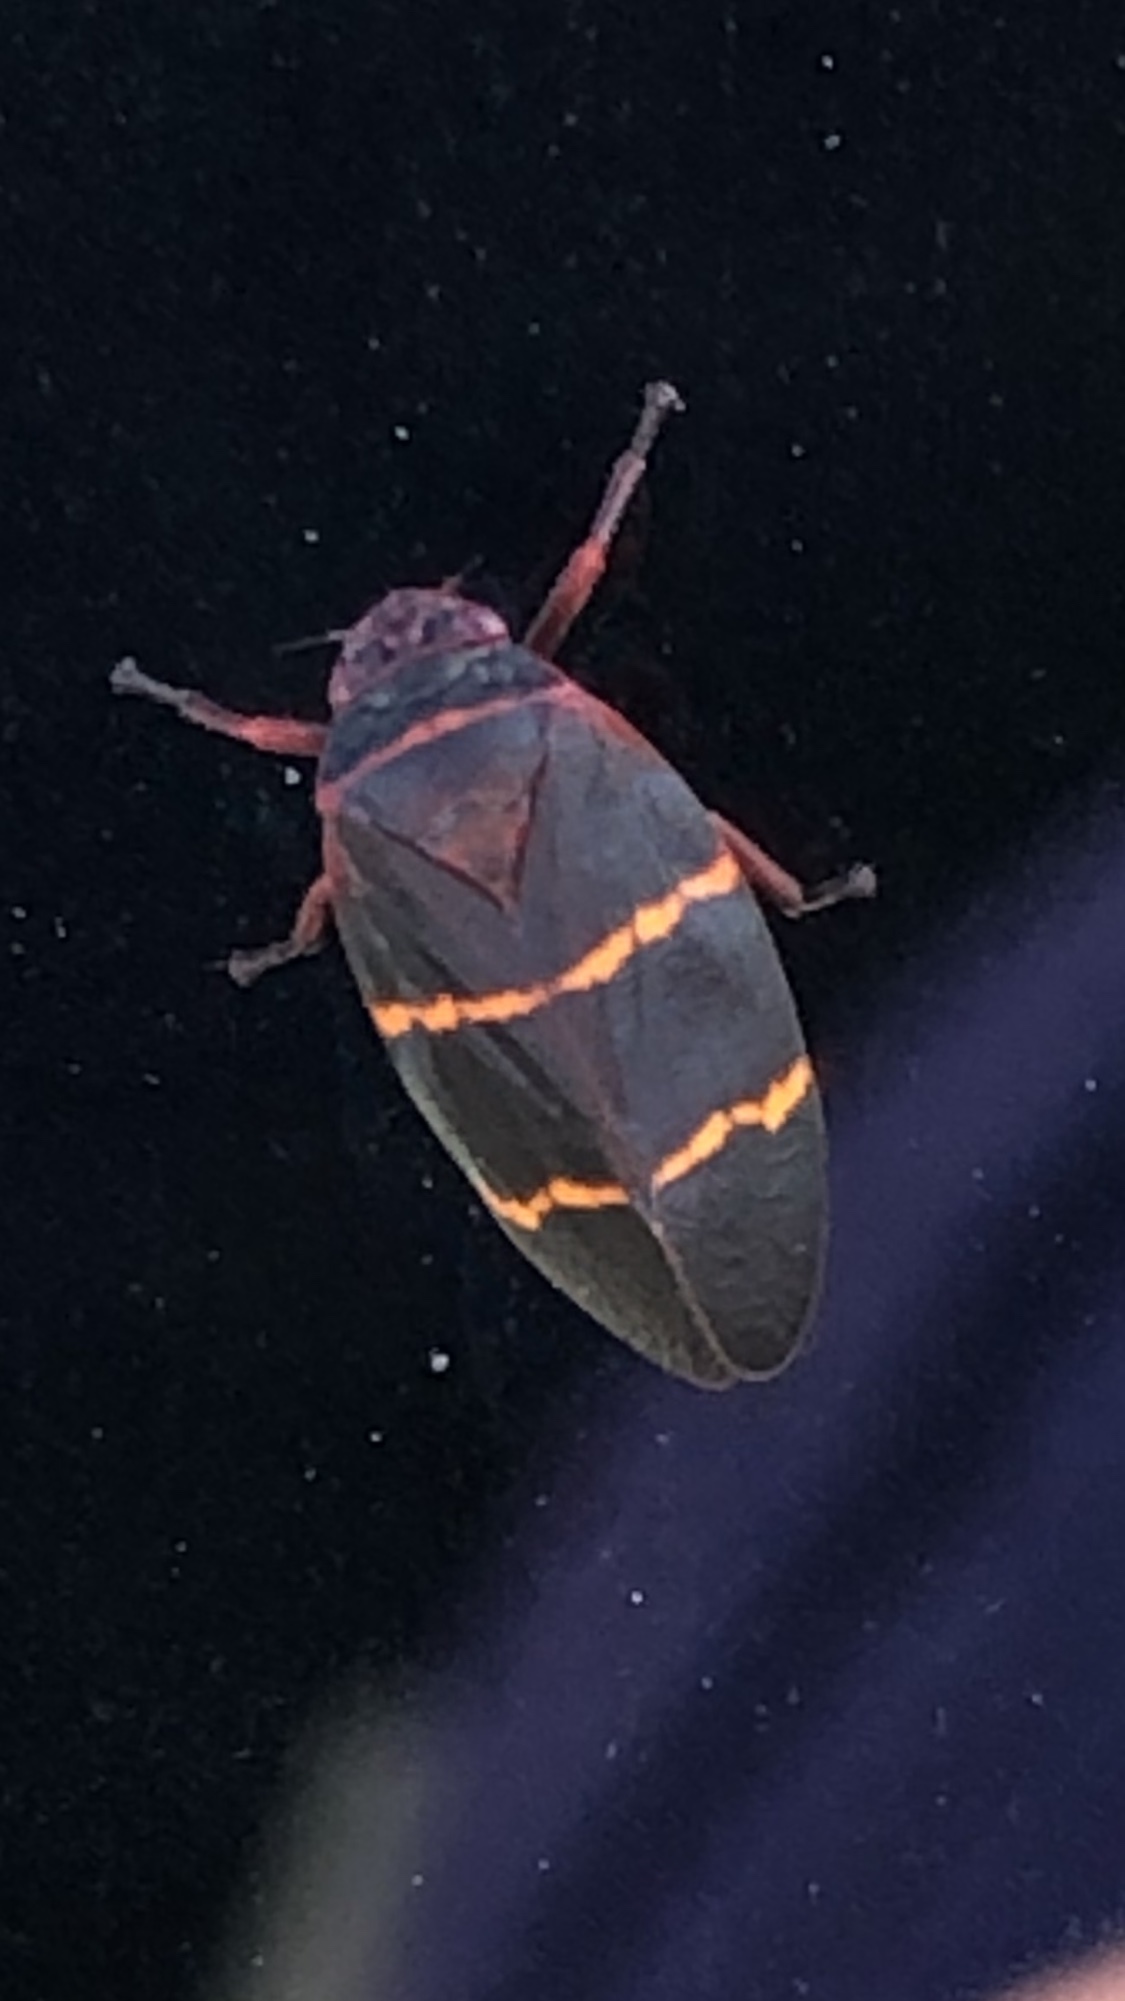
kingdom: Animalia
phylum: Arthropoda
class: Insecta
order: Hemiptera
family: Cercopidae
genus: Prosapia
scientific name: Prosapia bicincta
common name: Twolined spittlebug
